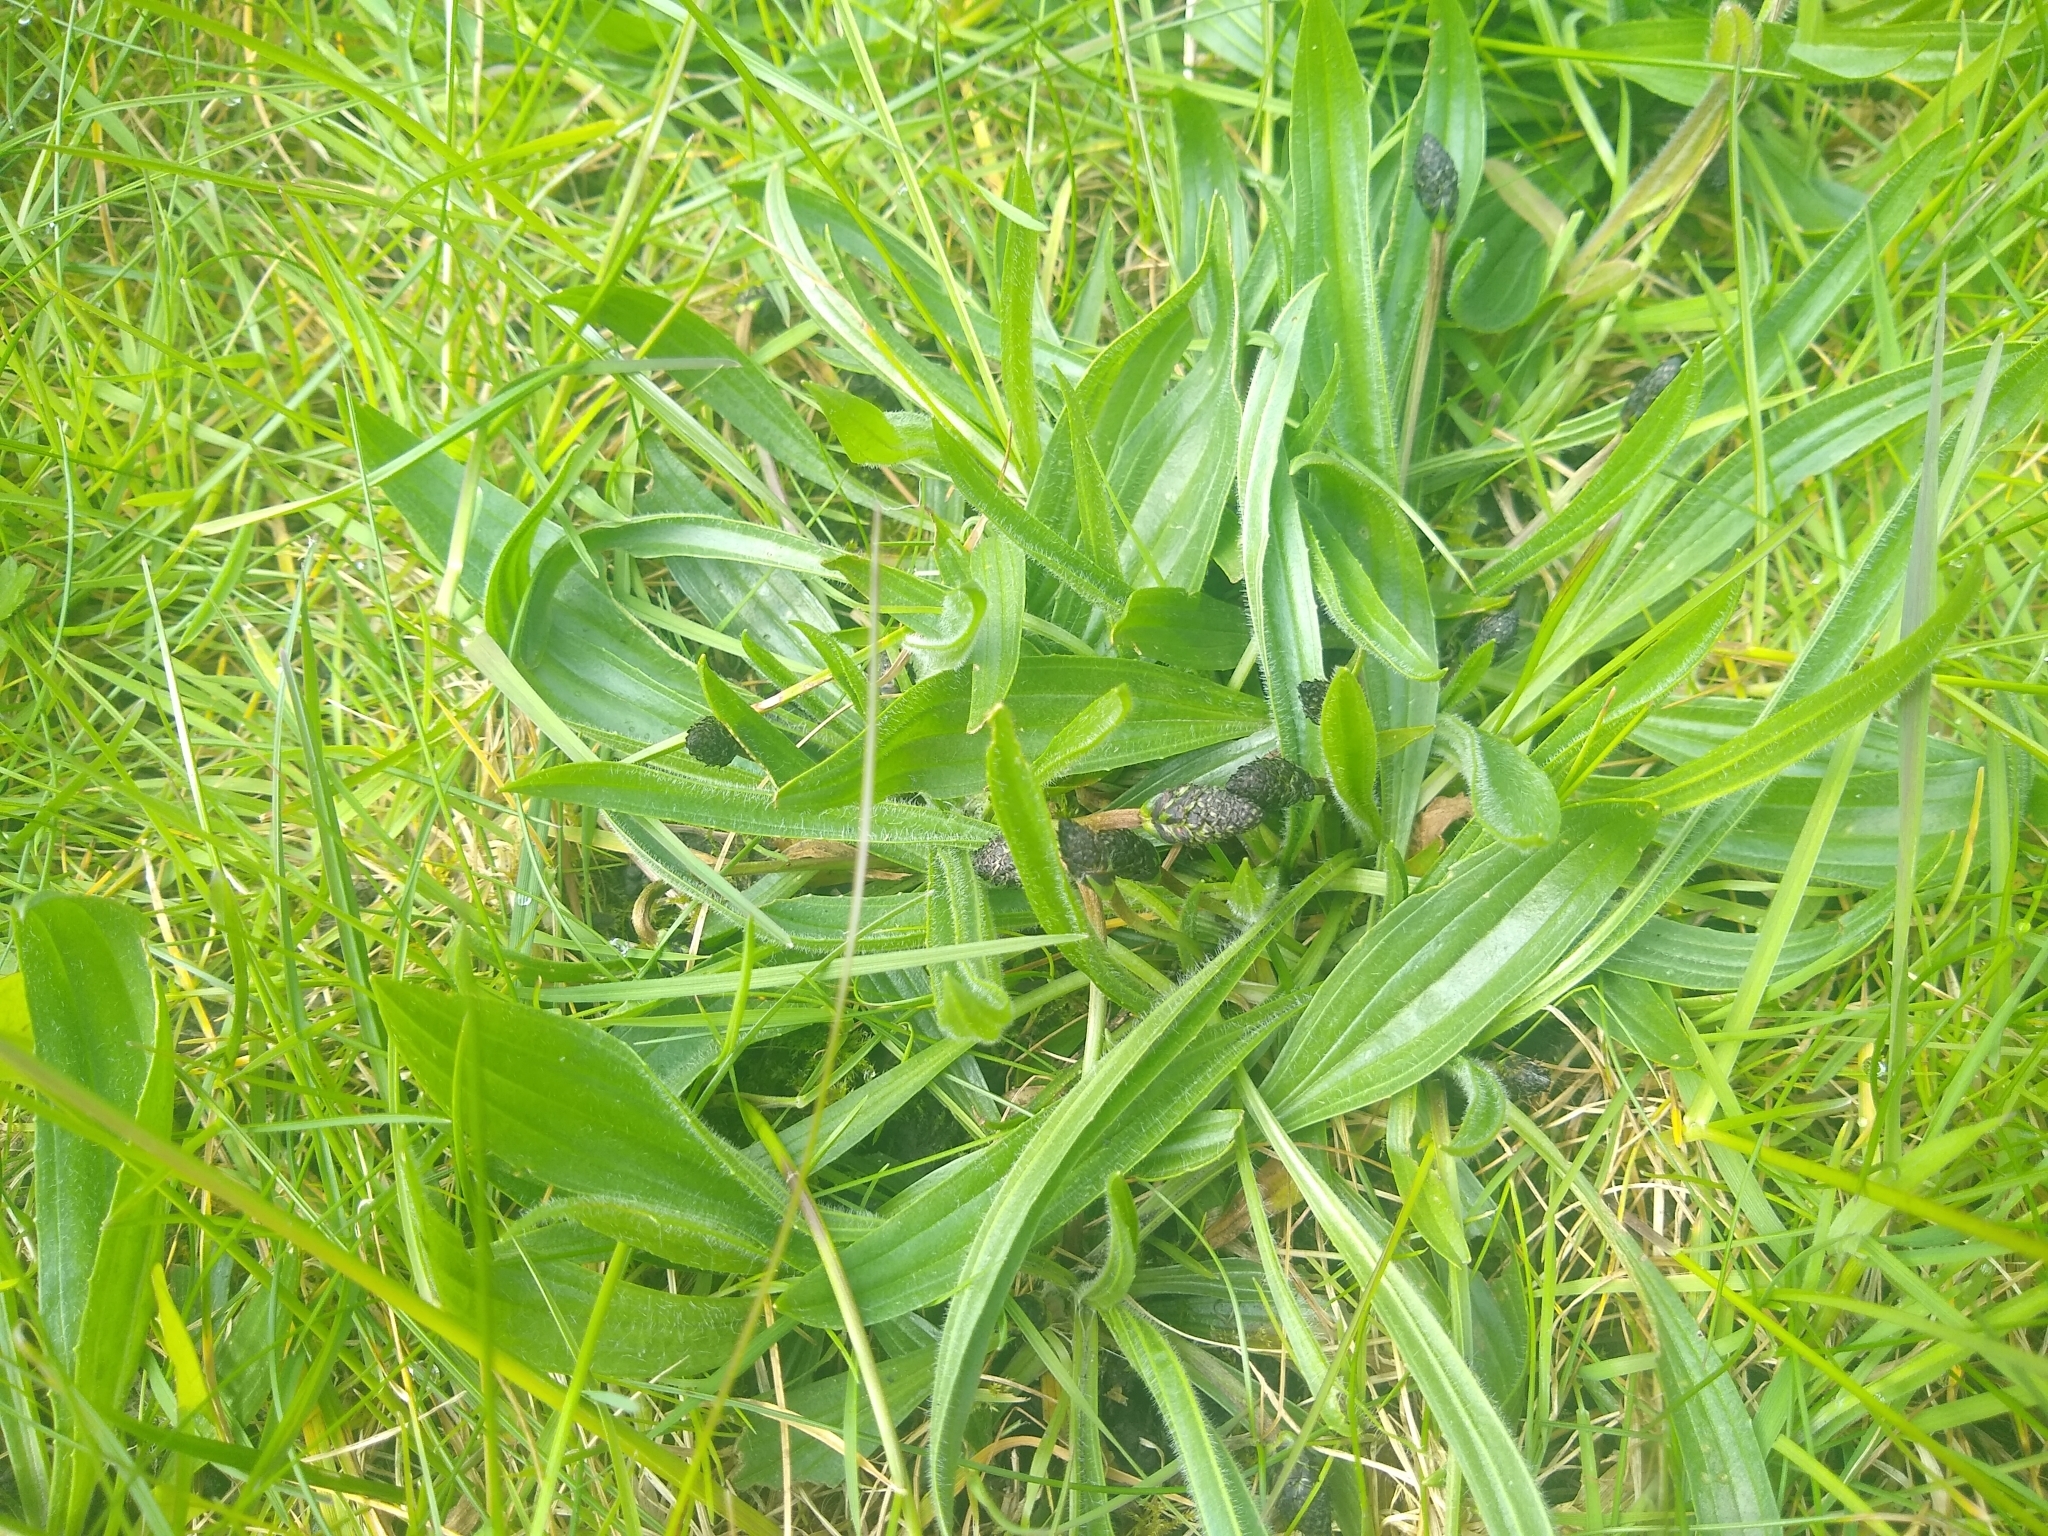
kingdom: Plantae
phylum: Tracheophyta
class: Magnoliopsida
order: Lamiales
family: Plantaginaceae
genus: Plantago
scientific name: Plantago lanceolata
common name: Ribwort plantain
